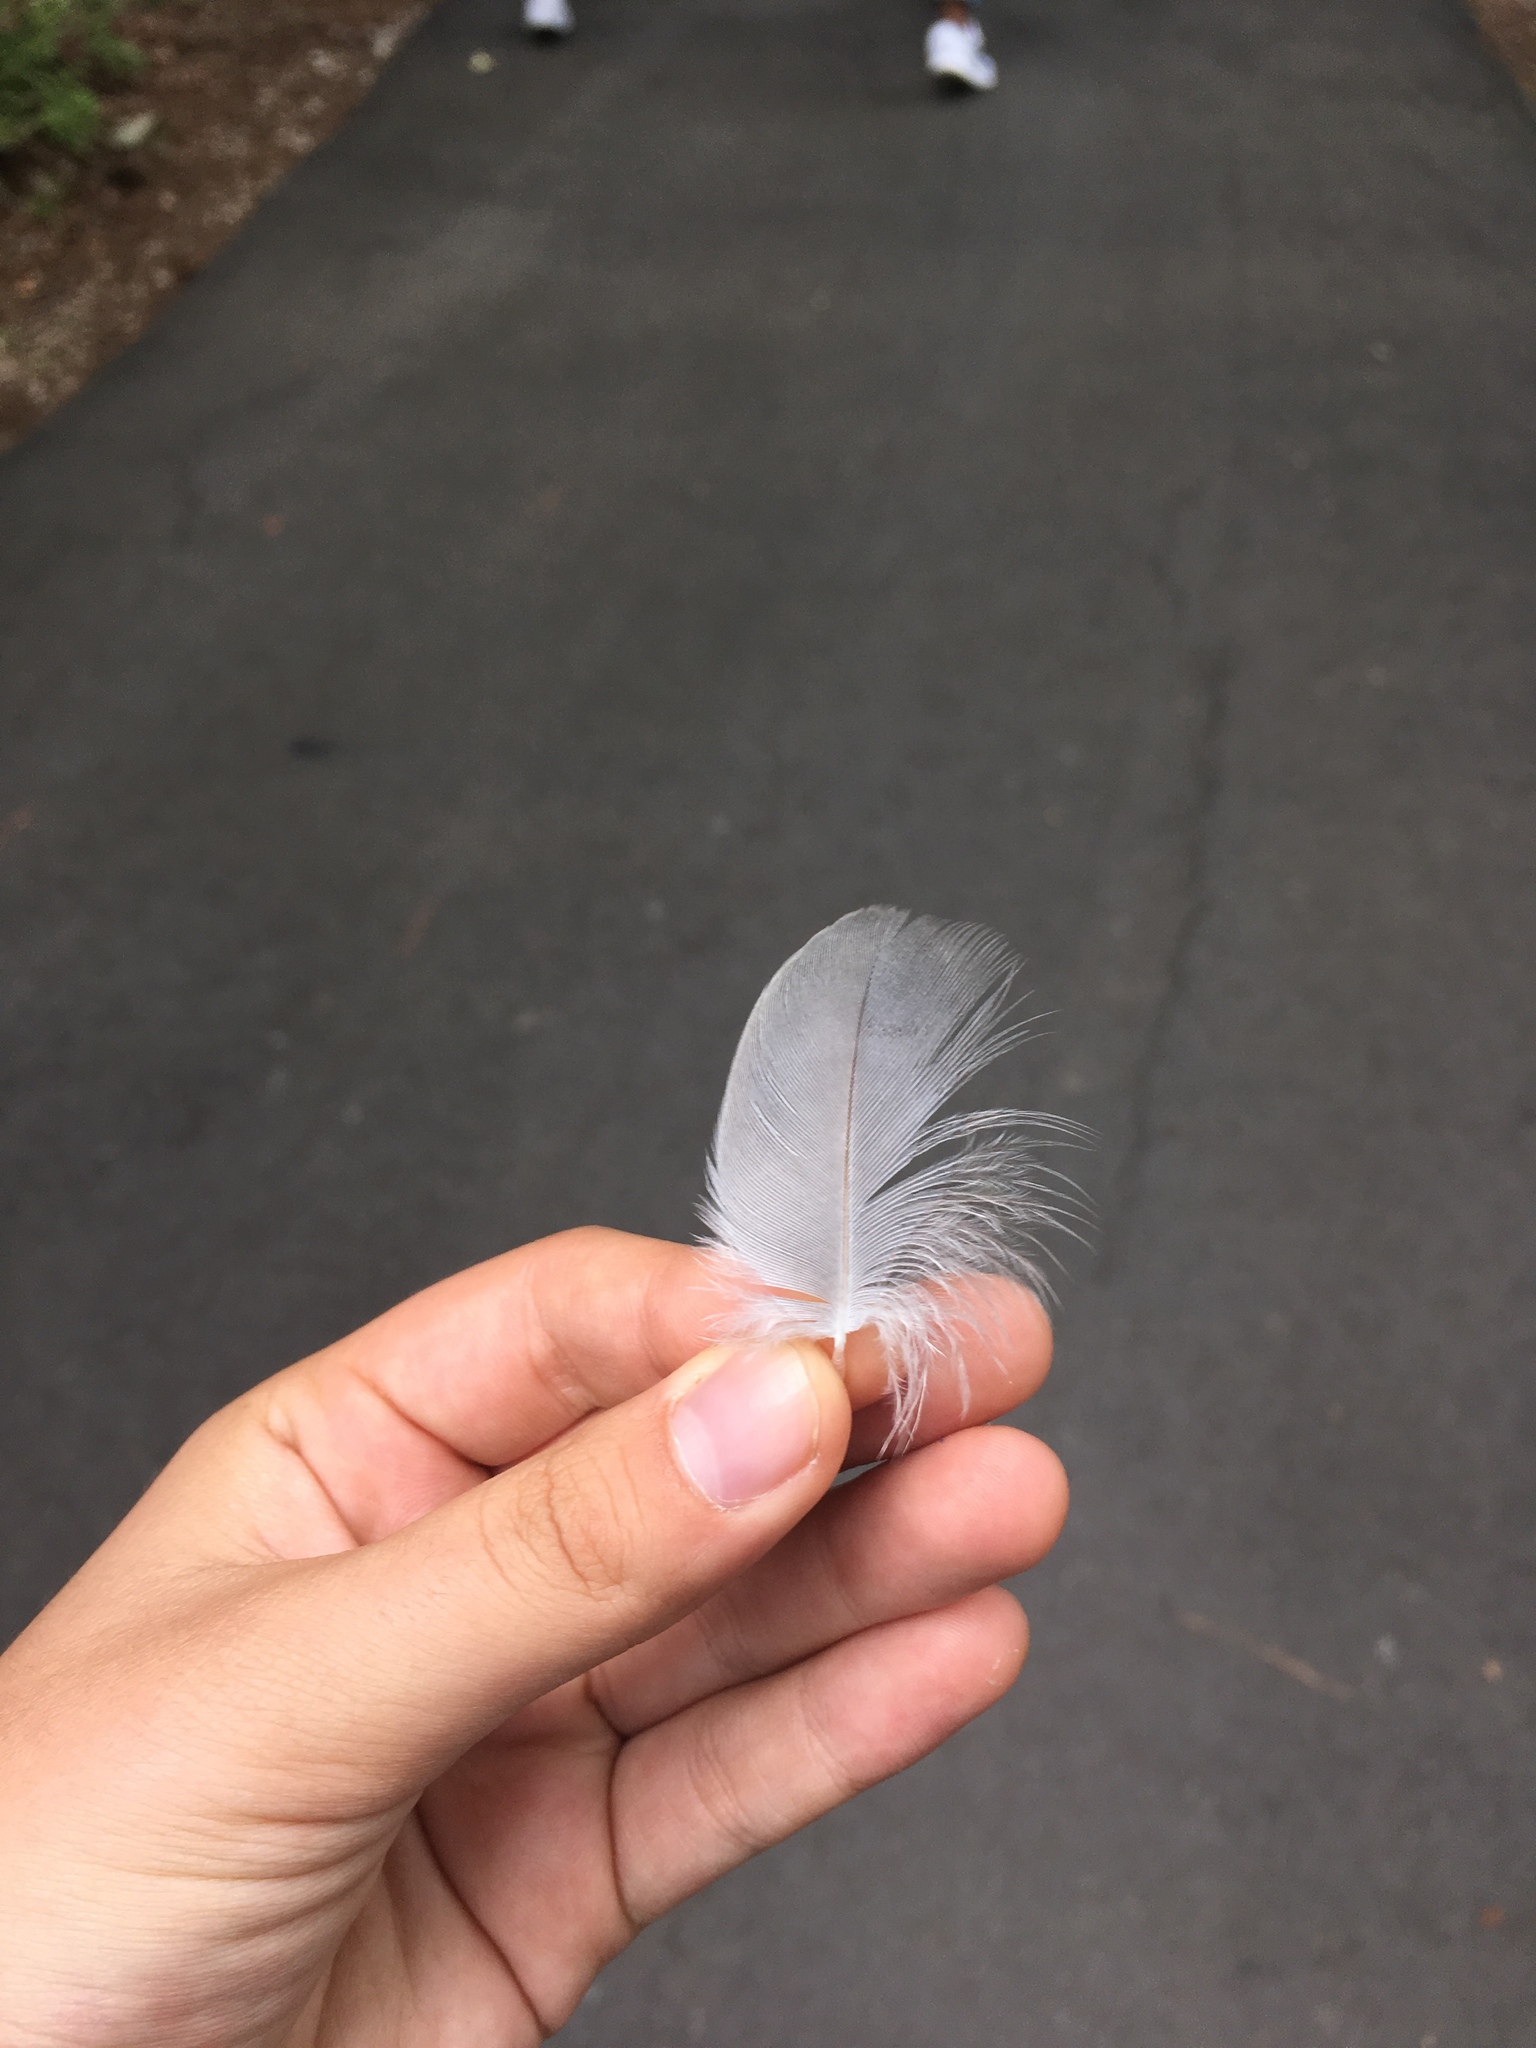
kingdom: Animalia
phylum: Chordata
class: Aves
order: Pelecaniformes
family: Ardeidae
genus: Ardea
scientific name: Ardea herodias
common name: Great blue heron
